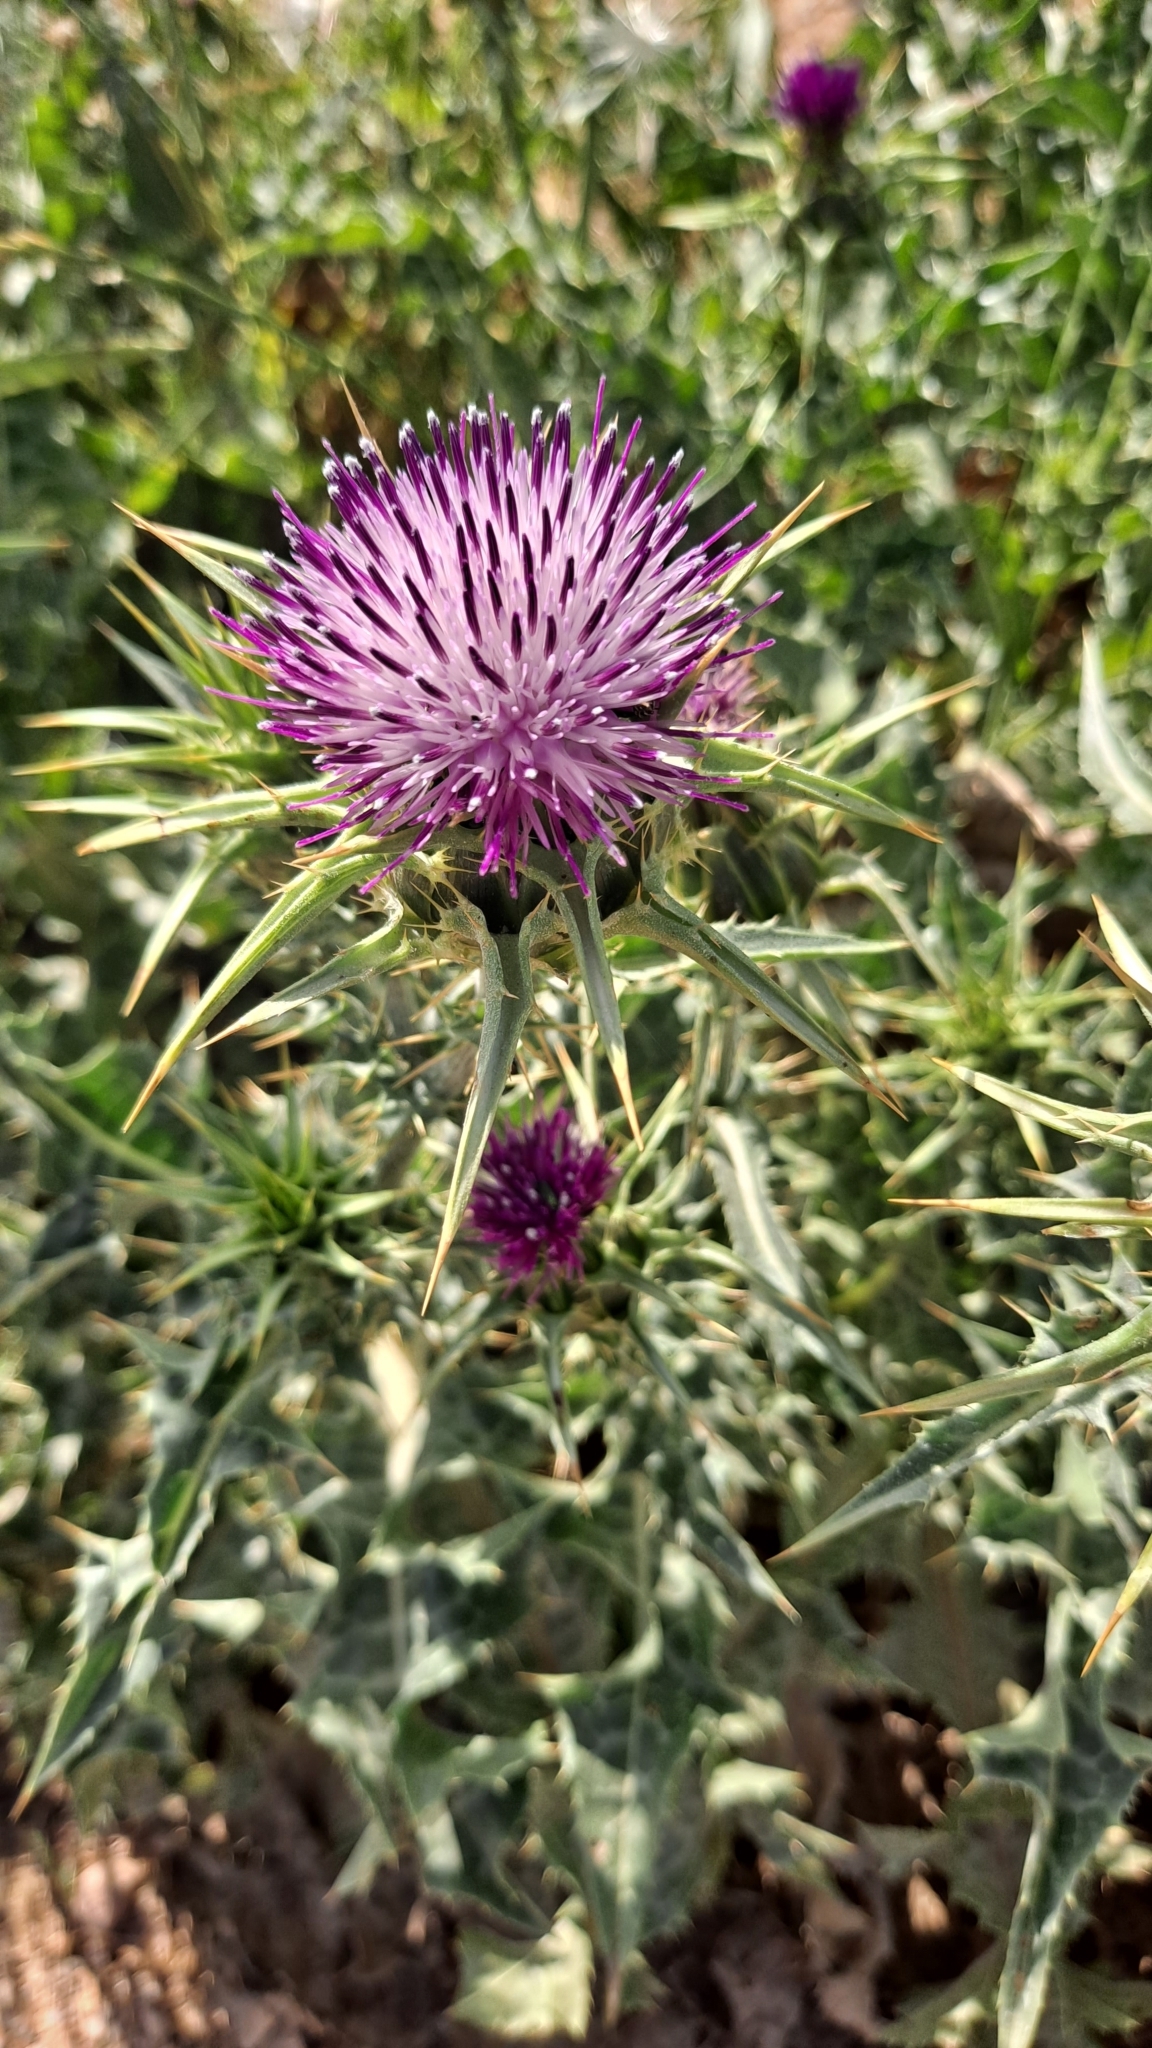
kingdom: Plantae
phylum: Tracheophyta
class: Magnoliopsida
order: Asterales
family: Asteraceae
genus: Silybum
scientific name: Silybum marianum
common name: Milk thistle
